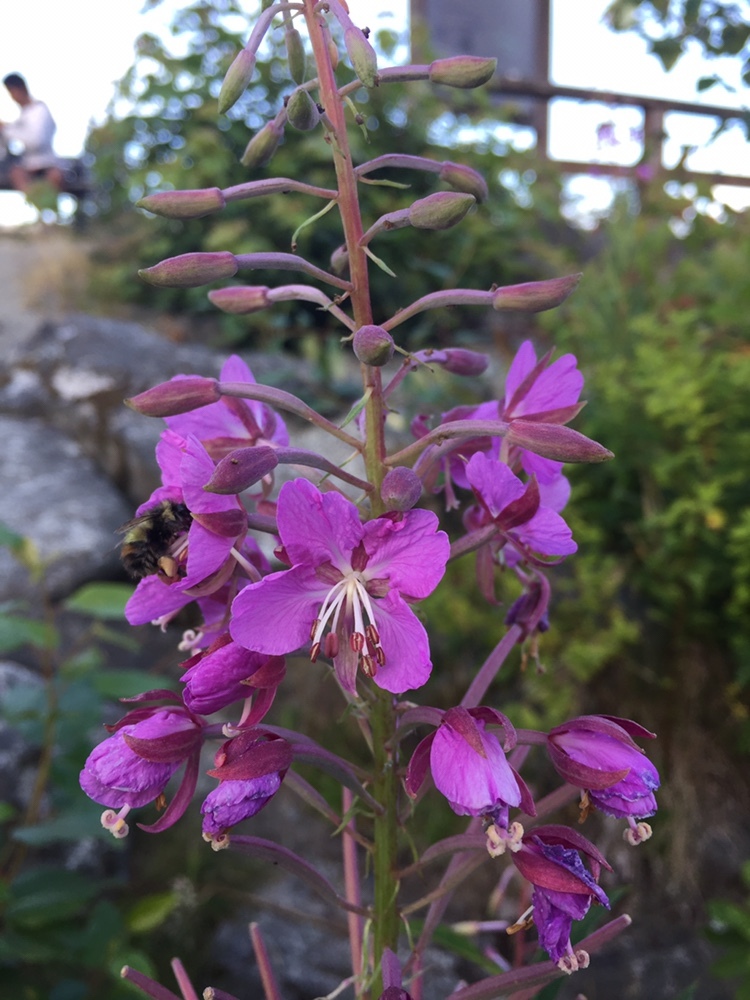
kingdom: Plantae
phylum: Tracheophyta
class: Magnoliopsida
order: Myrtales
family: Onagraceae
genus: Chamaenerion
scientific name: Chamaenerion angustifolium
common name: Fireweed
